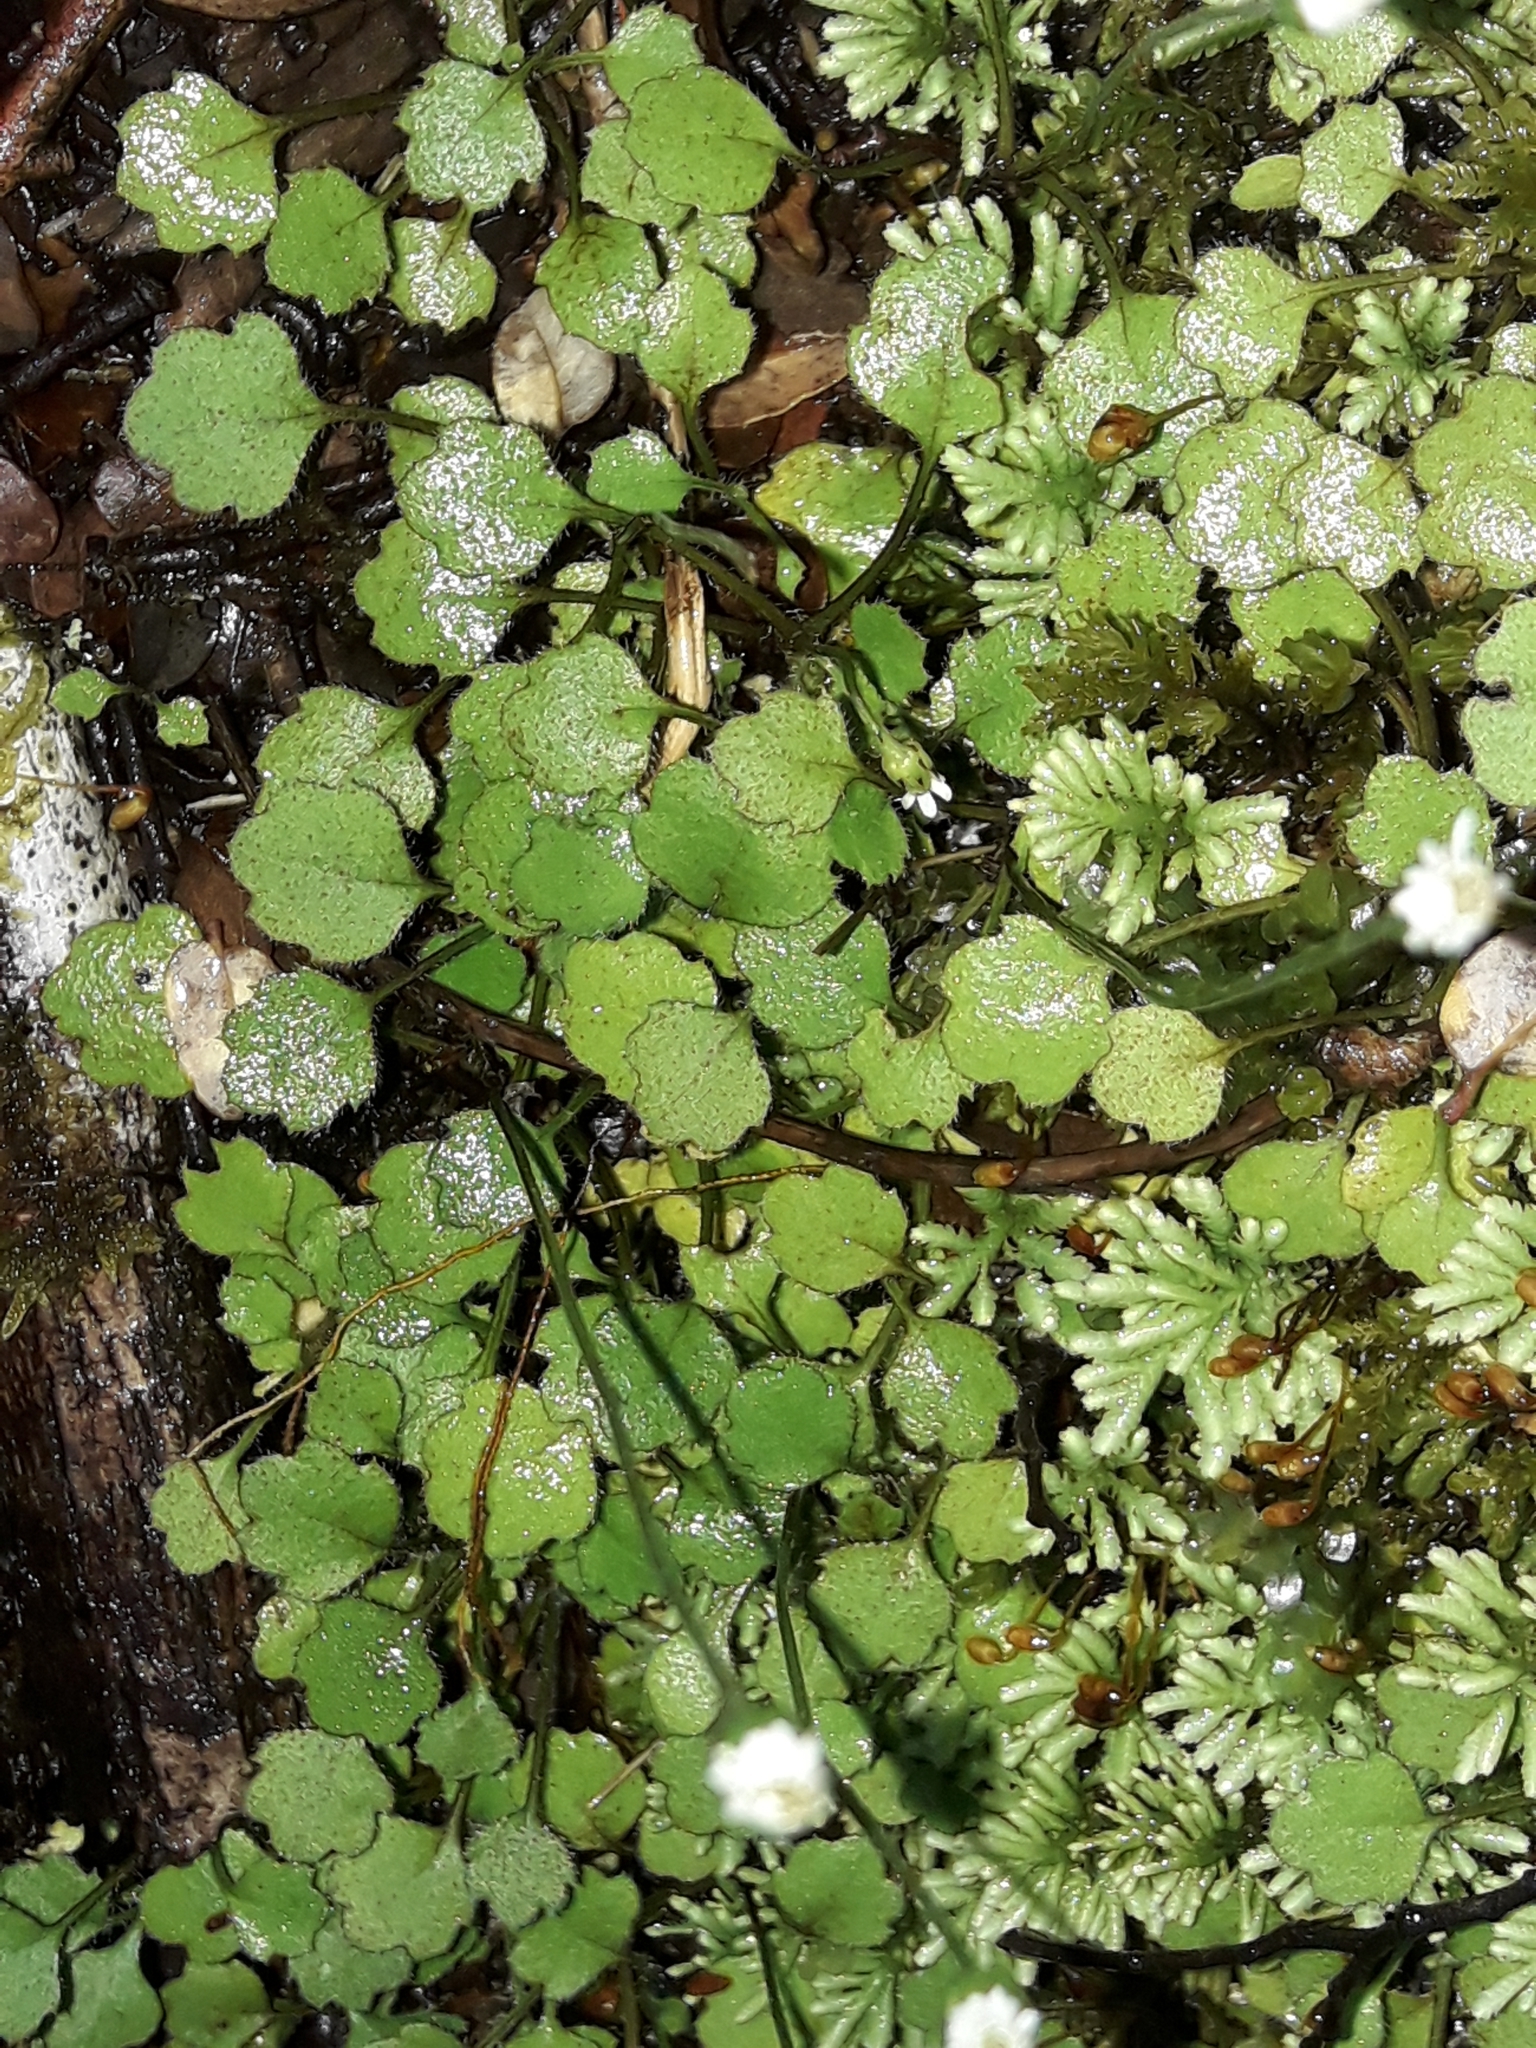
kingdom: Plantae
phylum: Tracheophyta
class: Magnoliopsida
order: Asterales
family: Asteraceae
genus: Lagenophora
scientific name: Lagenophora strangulata
